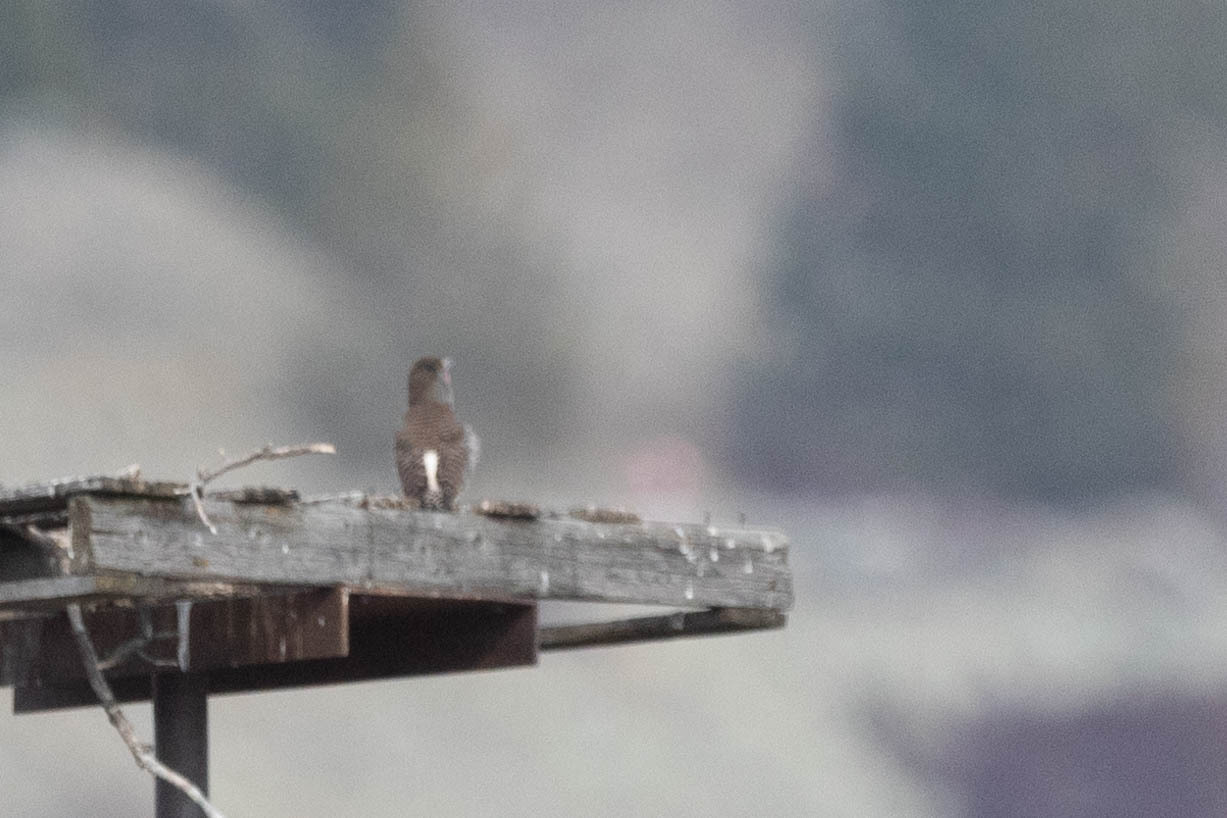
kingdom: Animalia
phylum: Chordata
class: Aves
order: Piciformes
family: Picidae
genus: Colaptes
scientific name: Colaptes auratus
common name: Northern flicker
